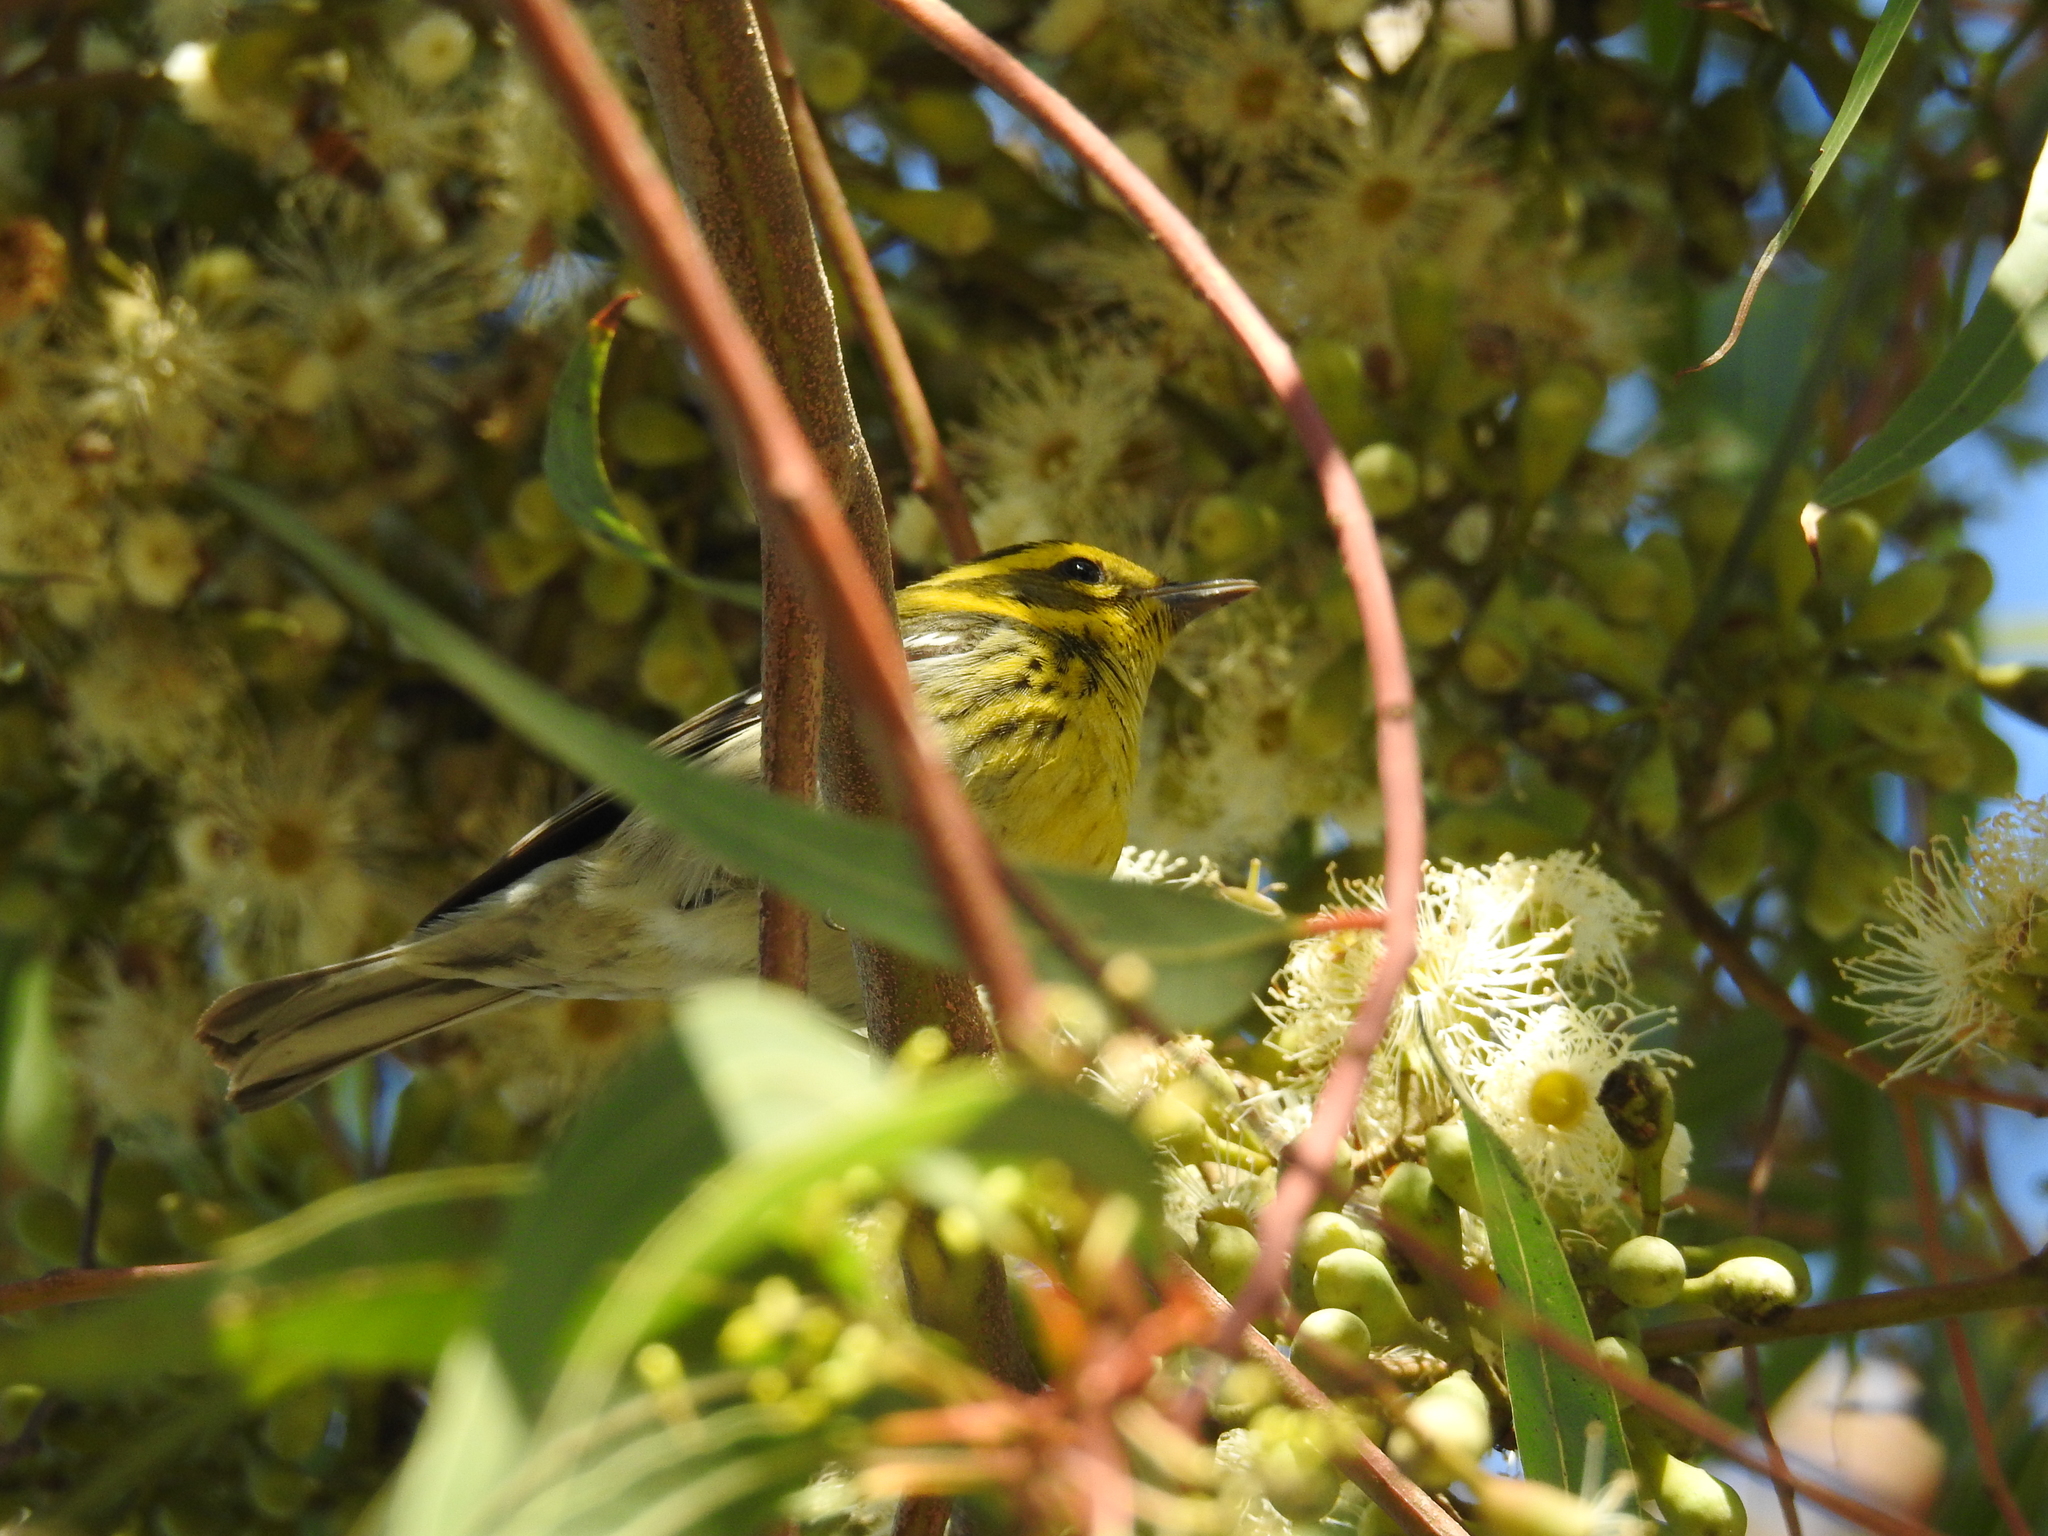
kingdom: Animalia
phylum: Chordata
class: Aves
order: Passeriformes
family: Parulidae
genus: Setophaga
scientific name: Setophaga townsendi
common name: Townsend's warbler
